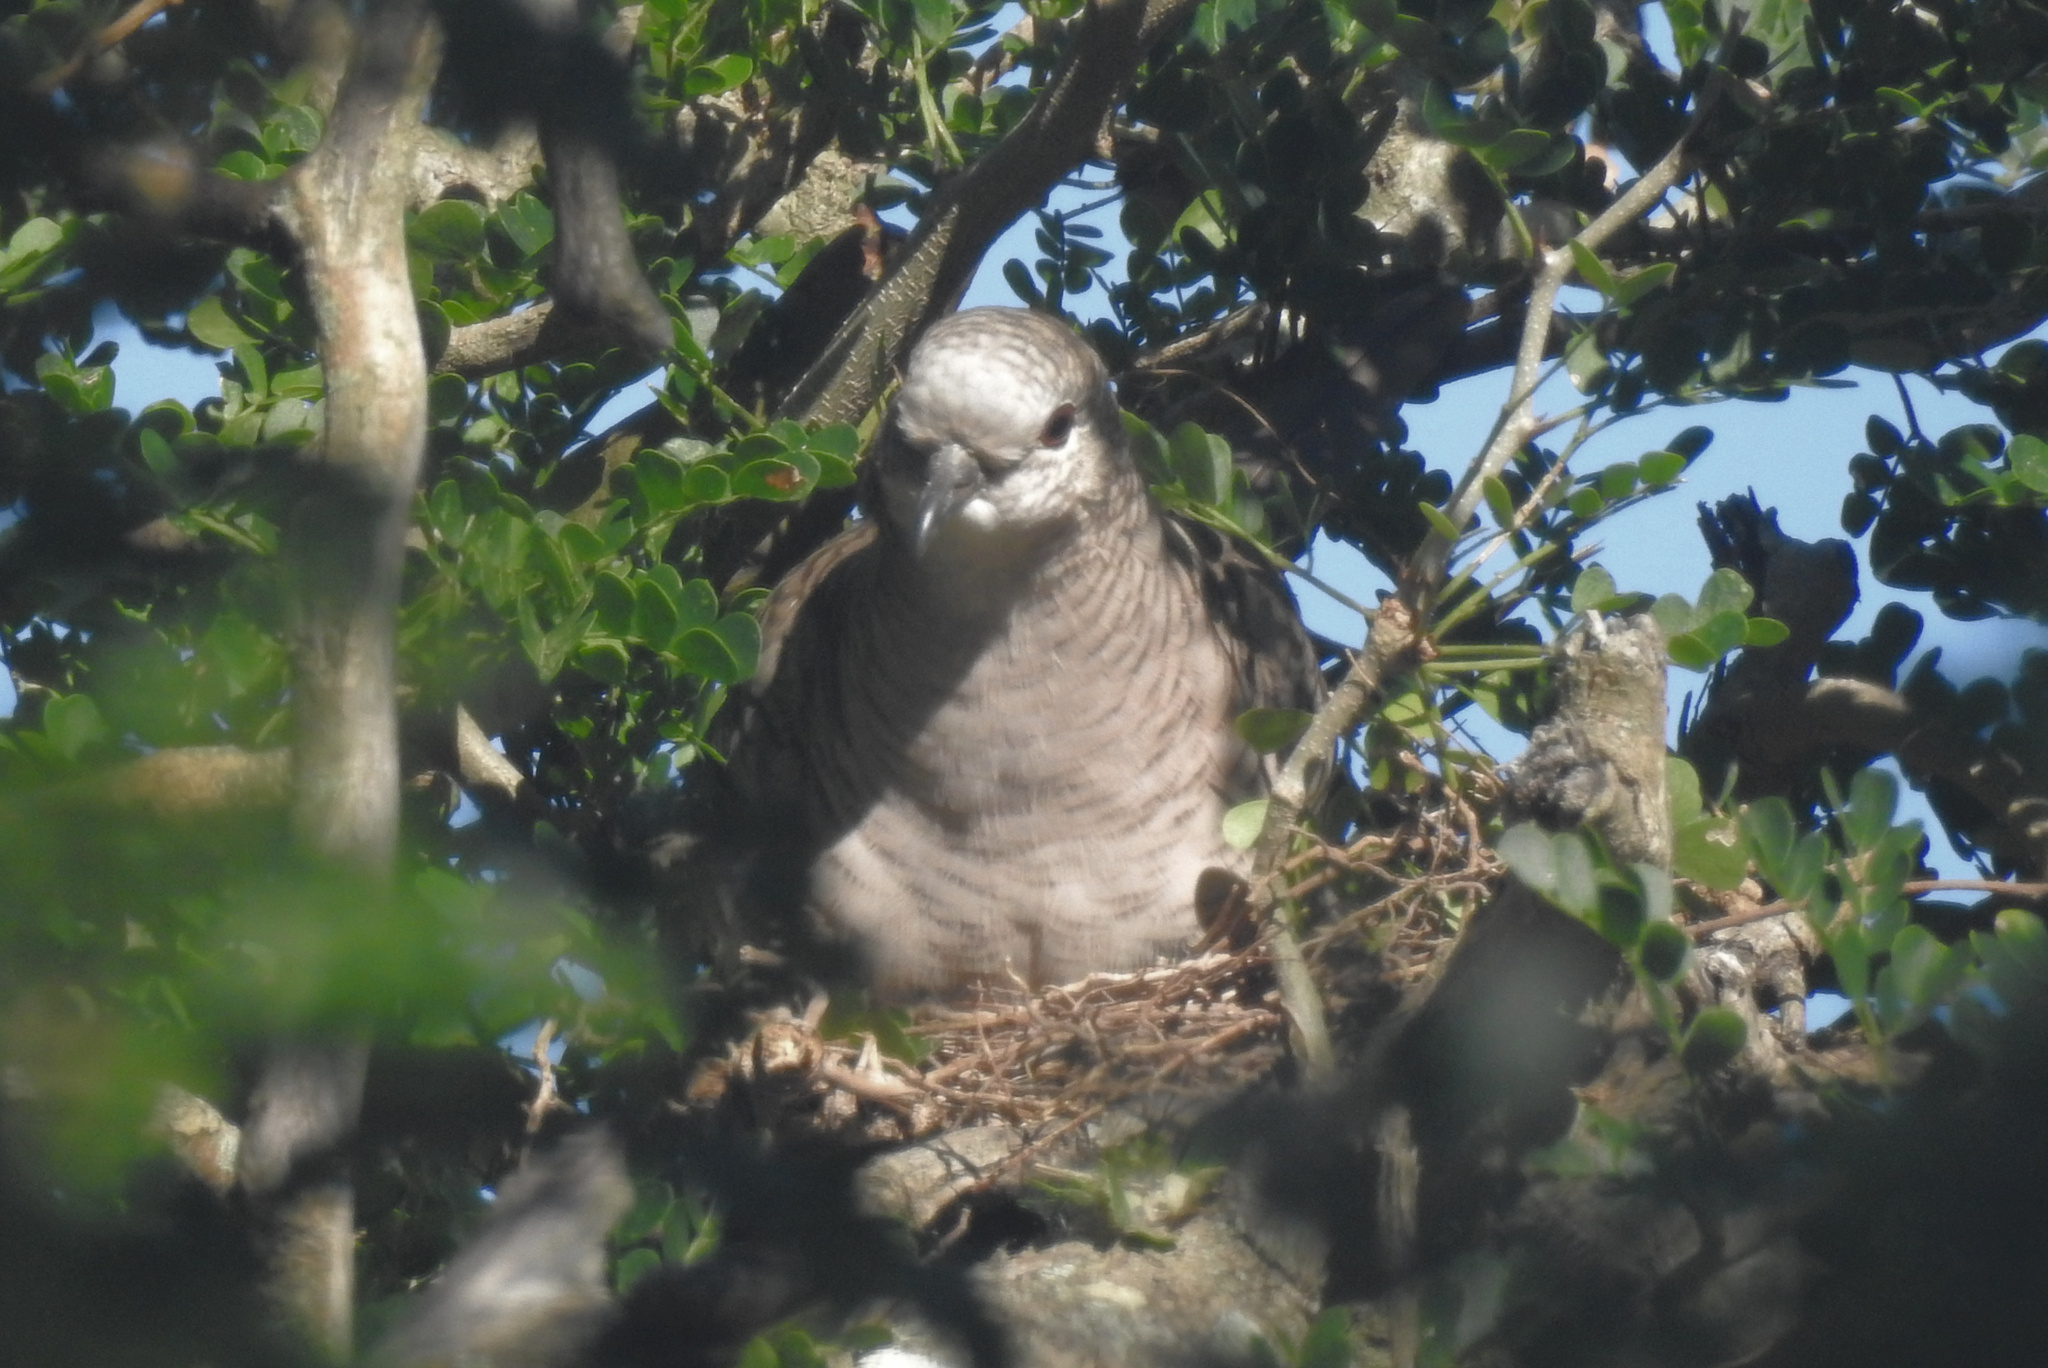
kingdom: Animalia
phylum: Chordata
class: Aves
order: Columbiformes
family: Columbidae
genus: Columbina
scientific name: Columbina inca
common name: Inca dove
